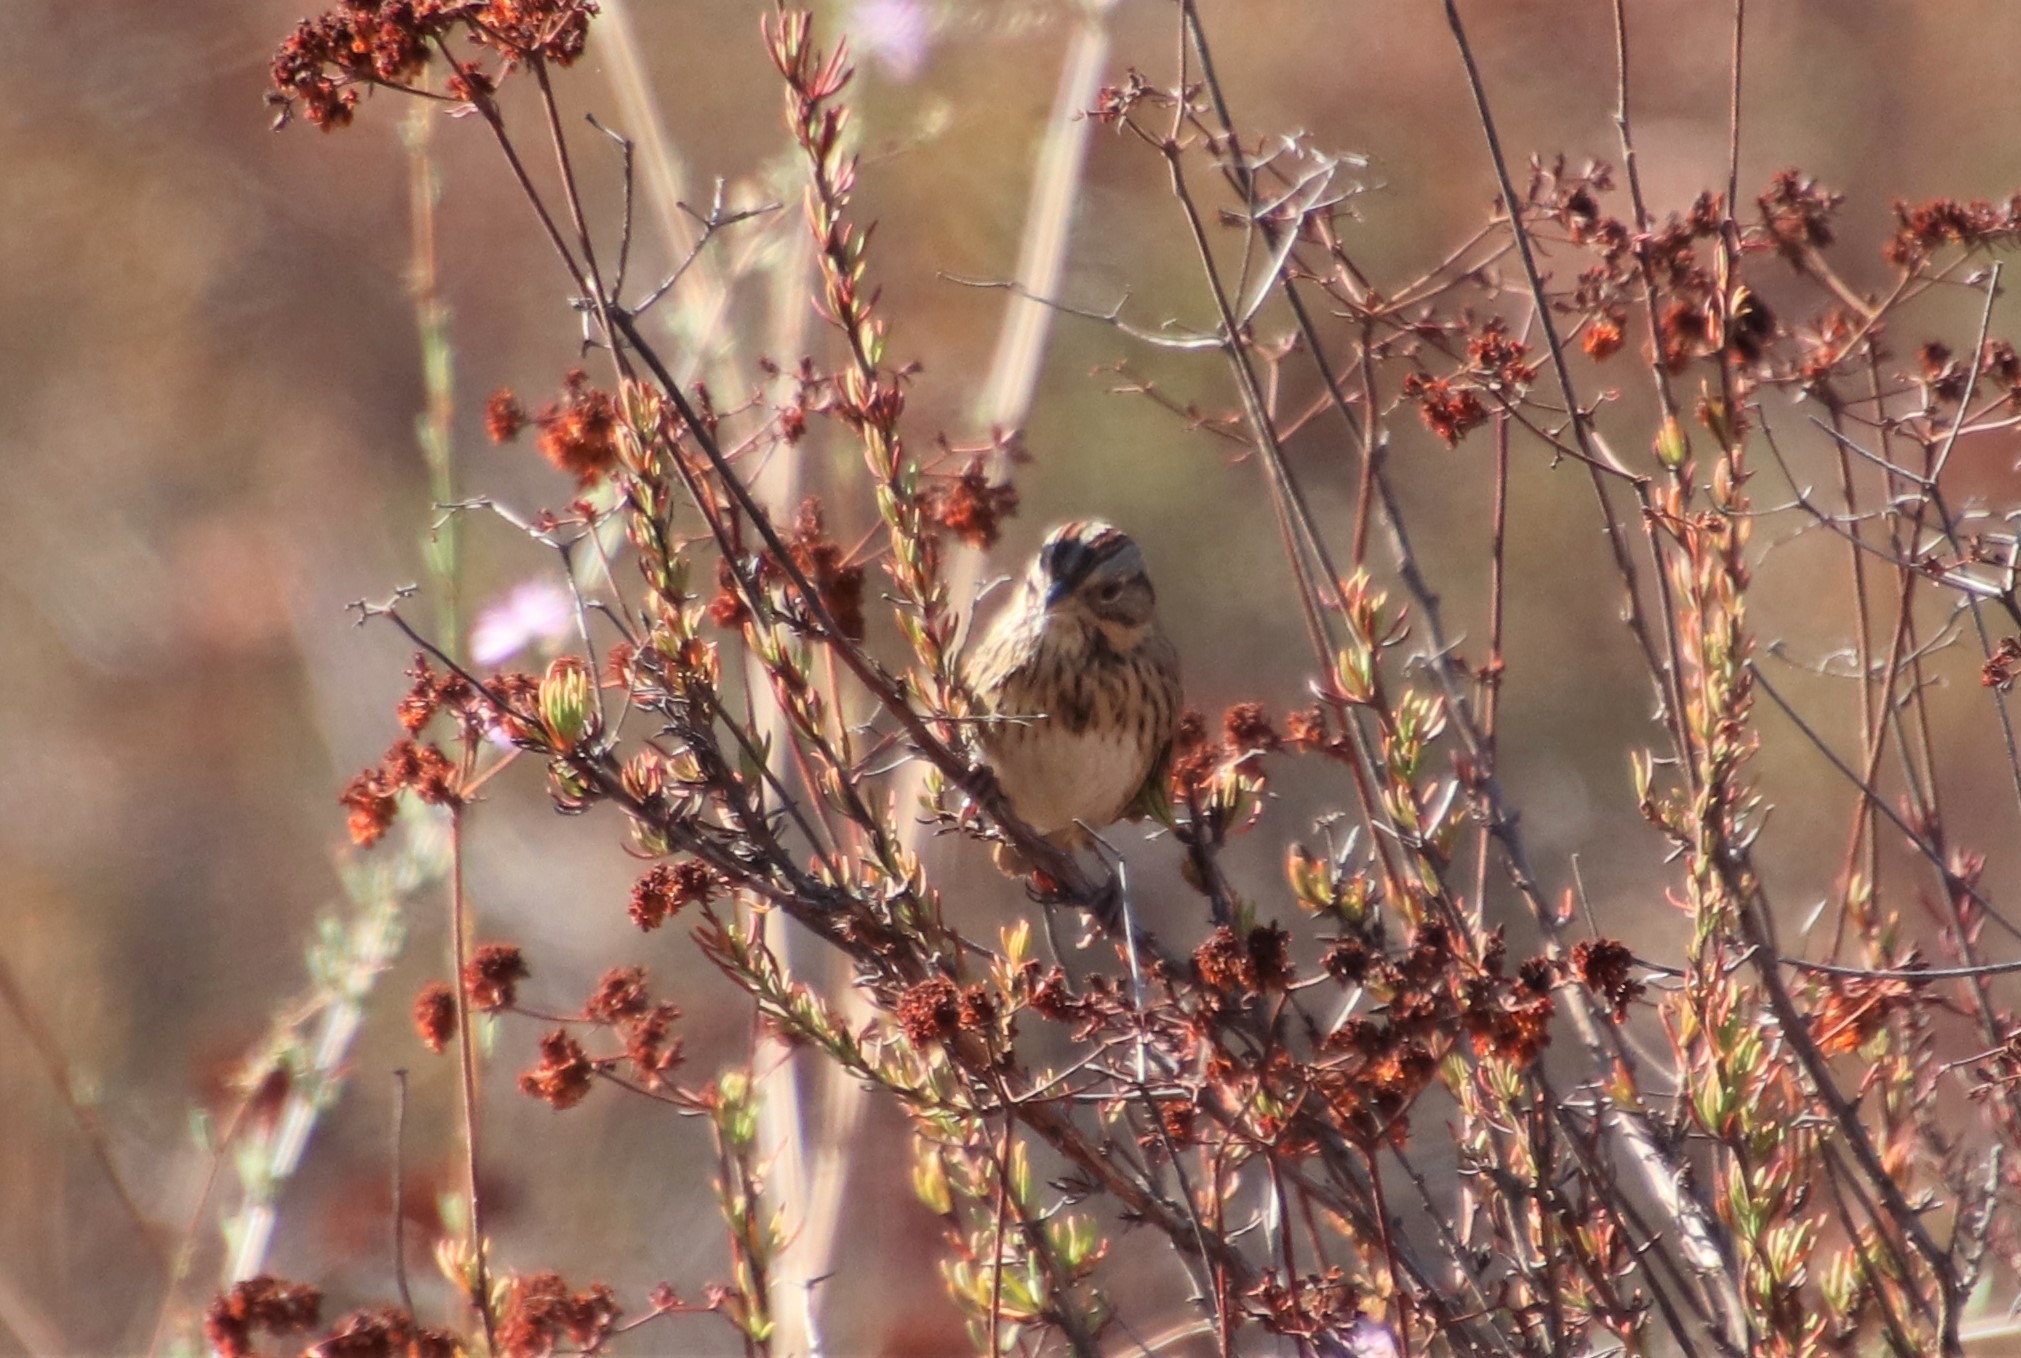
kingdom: Animalia
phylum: Chordata
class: Aves
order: Passeriformes
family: Passerellidae
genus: Melospiza
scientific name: Melospiza lincolnii
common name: Lincoln's sparrow
